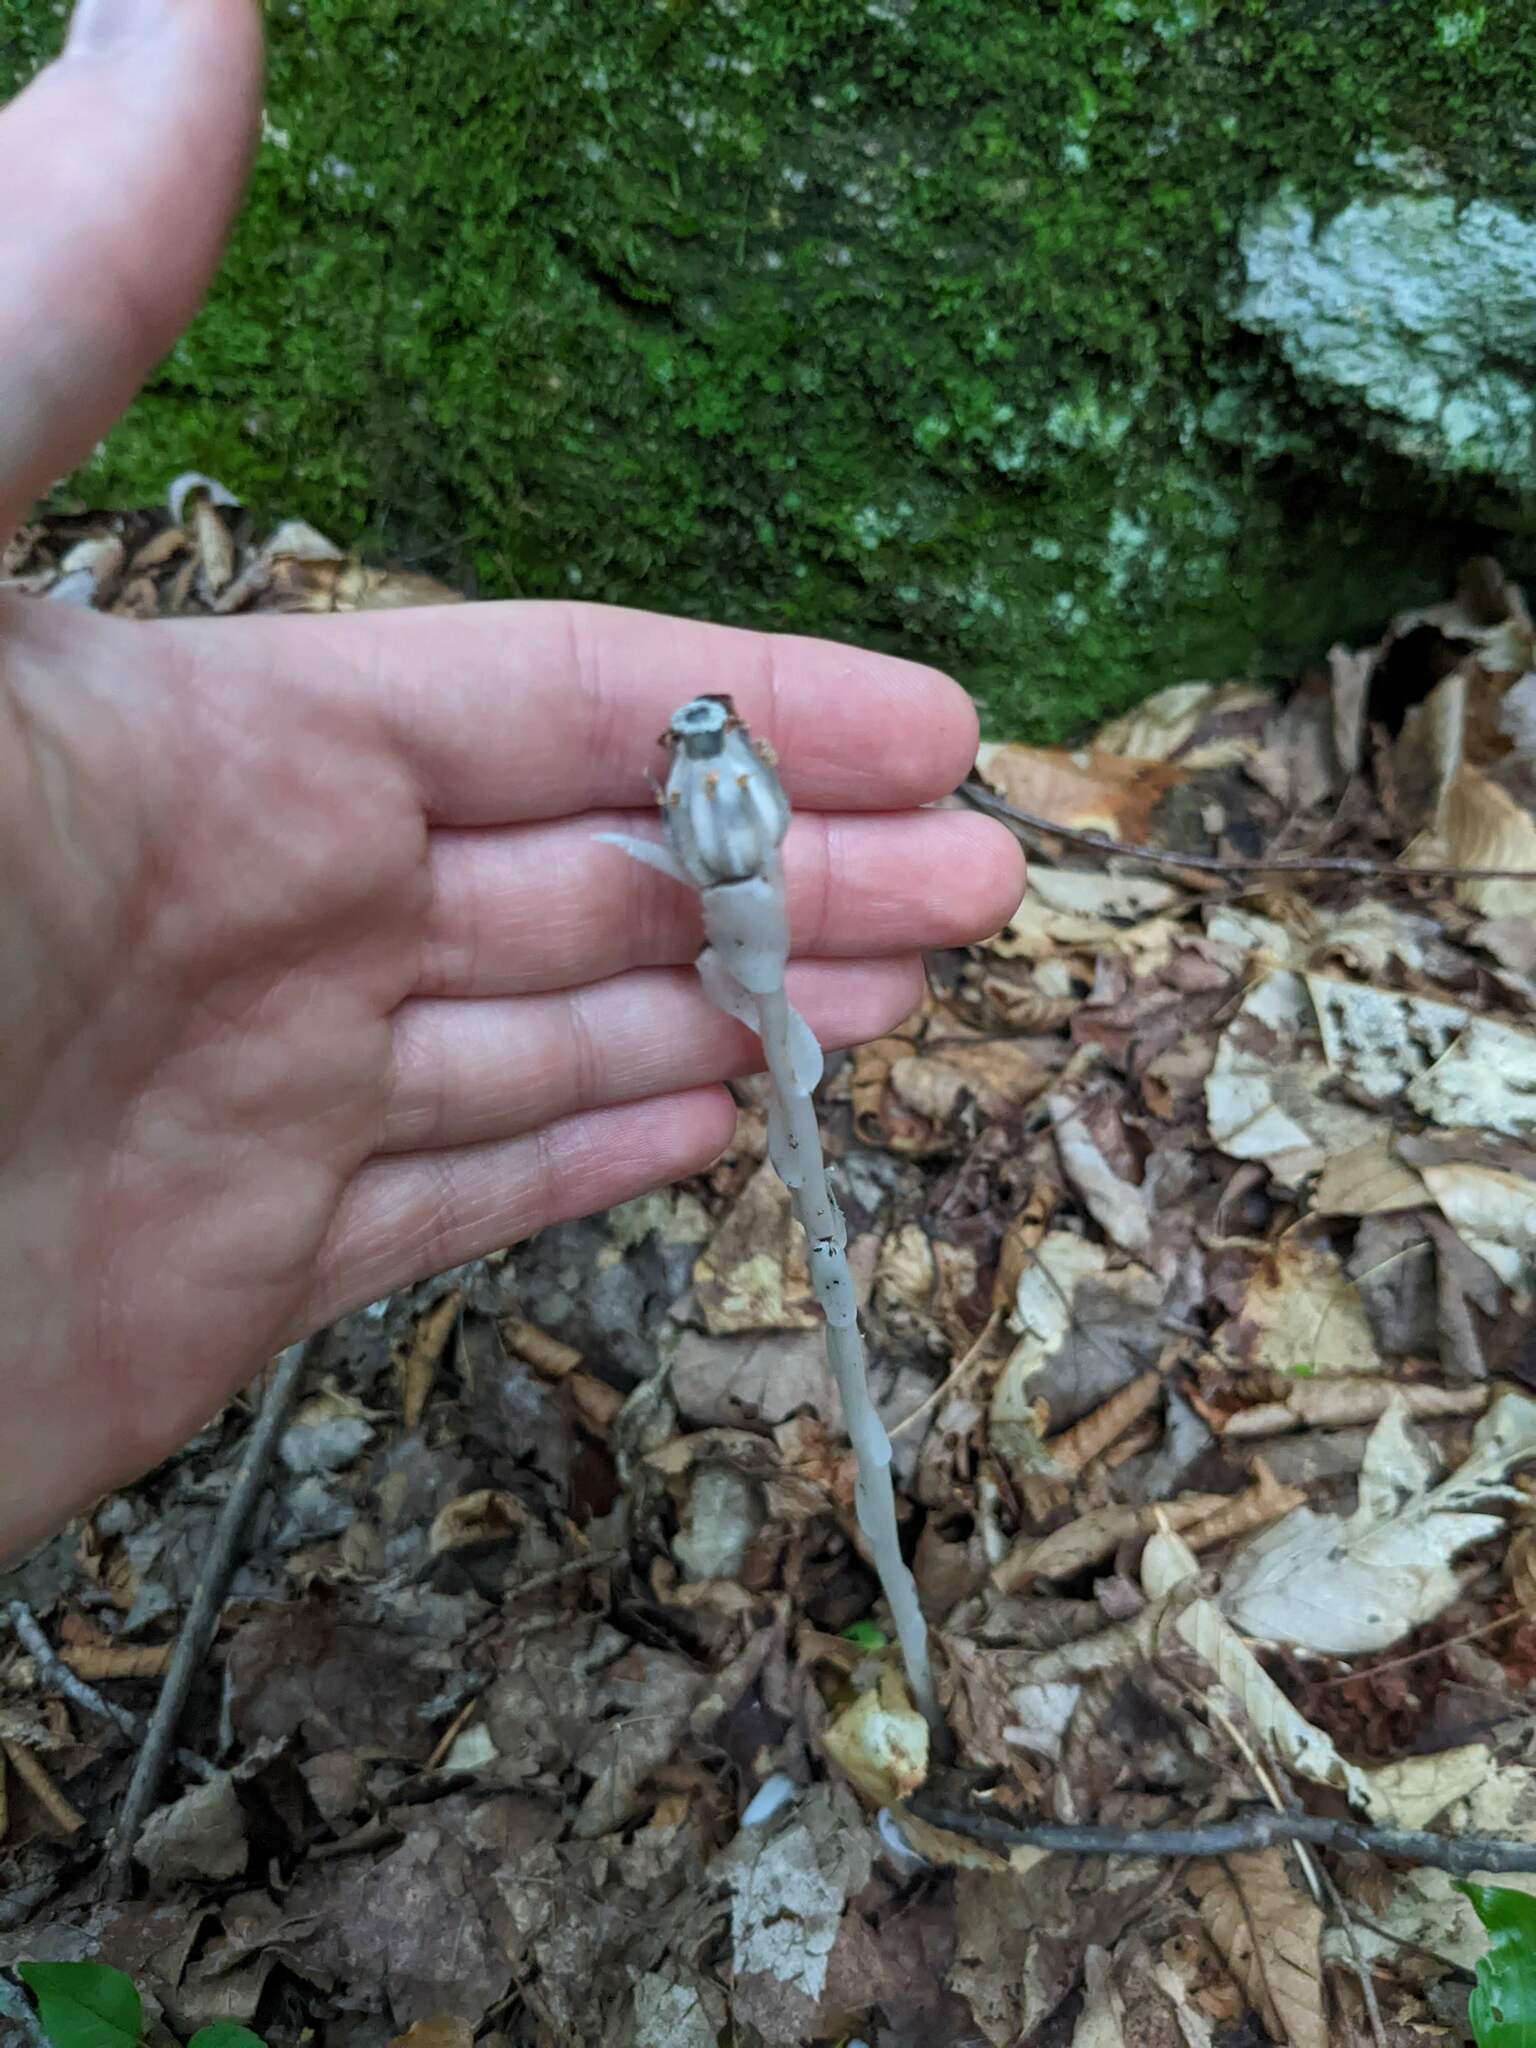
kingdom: Plantae
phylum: Tracheophyta
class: Magnoliopsida
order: Ericales
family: Ericaceae
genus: Monotropa
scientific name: Monotropa uniflora
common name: Convulsion root
